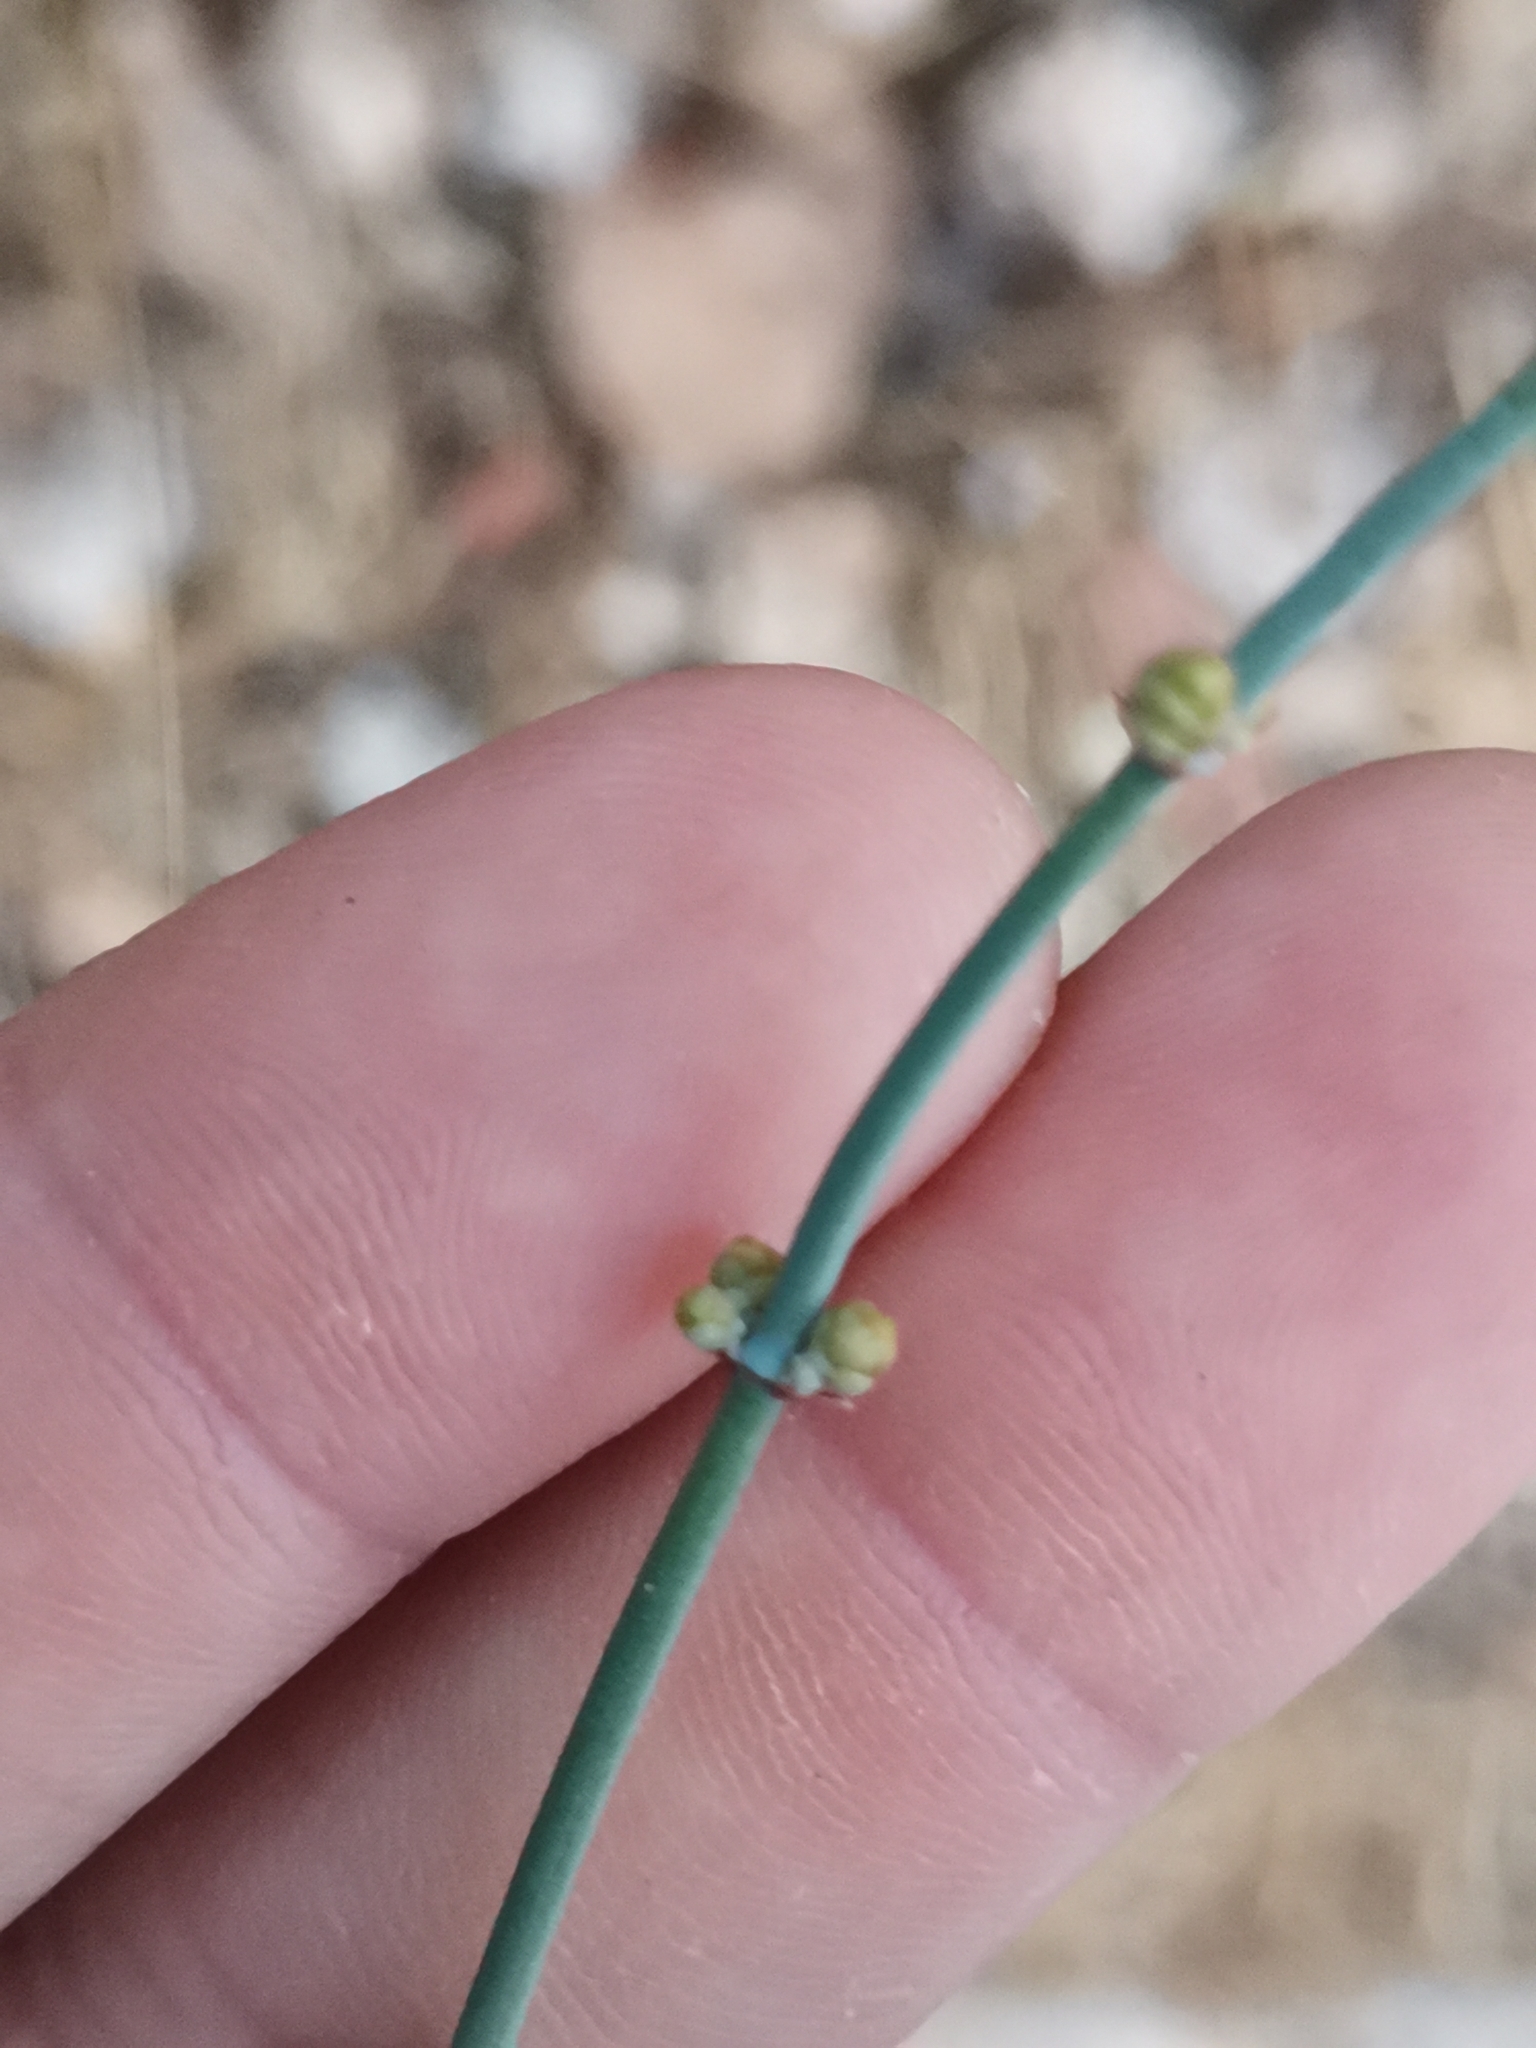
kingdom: Plantae
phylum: Tracheophyta
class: Gnetopsida
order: Ephedrales
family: Ephedraceae
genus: Ephedra
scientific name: Ephedra foeminea
